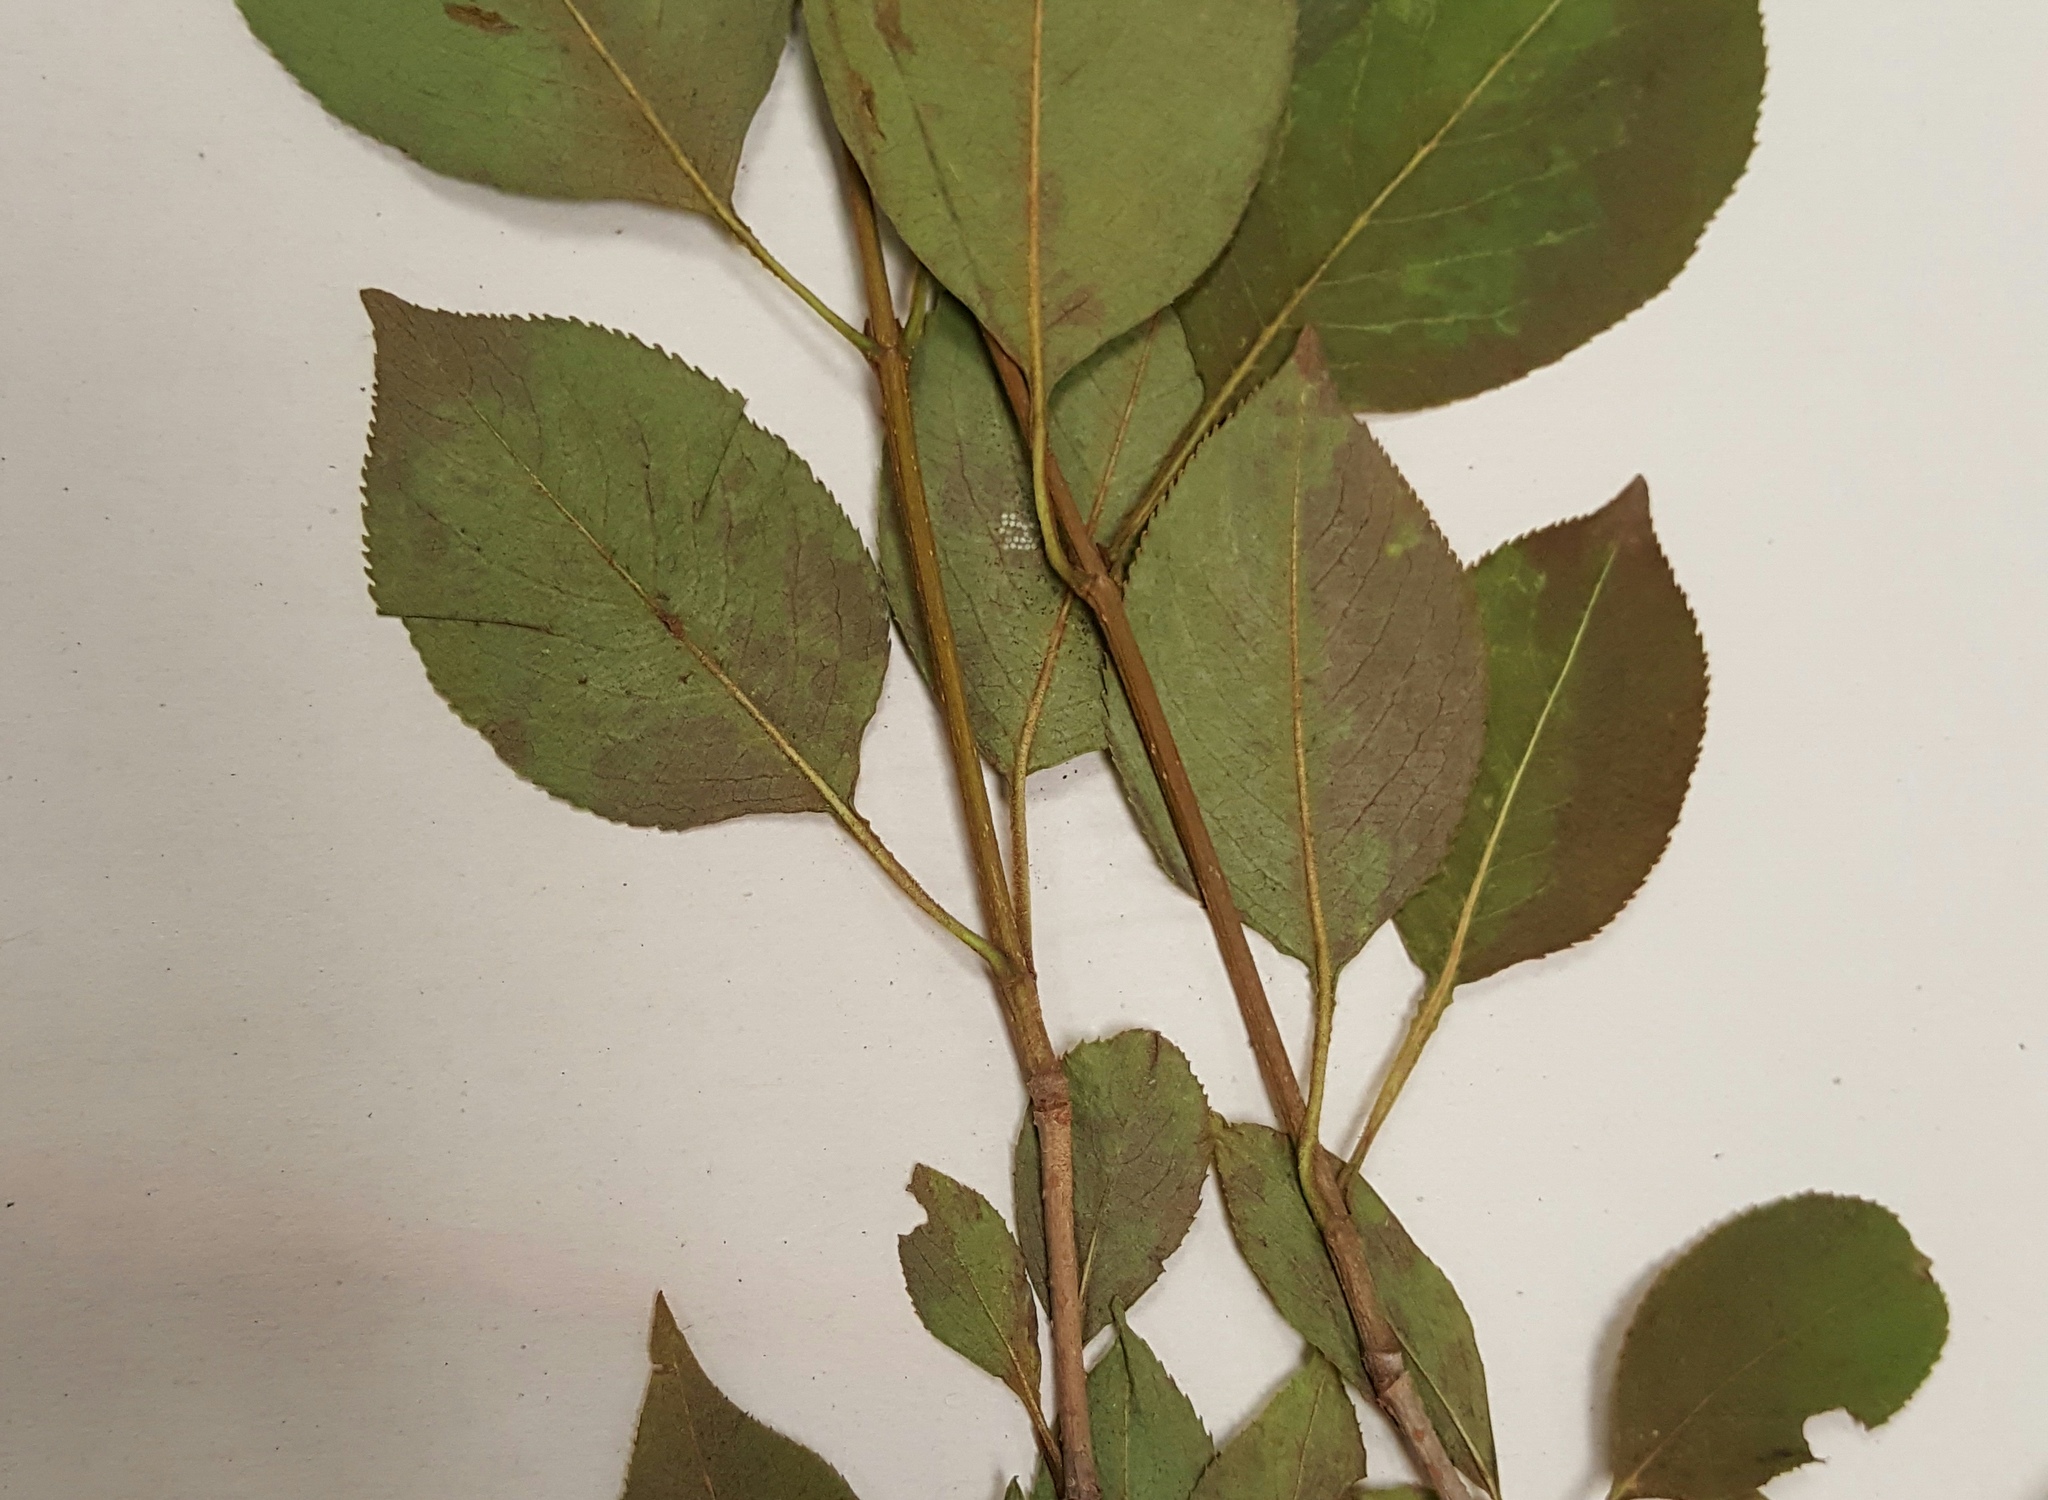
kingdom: Plantae
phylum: Tracheophyta
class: Magnoliopsida
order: Dipsacales
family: Viburnaceae
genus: Viburnum
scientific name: Viburnum lentago
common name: Black haw
